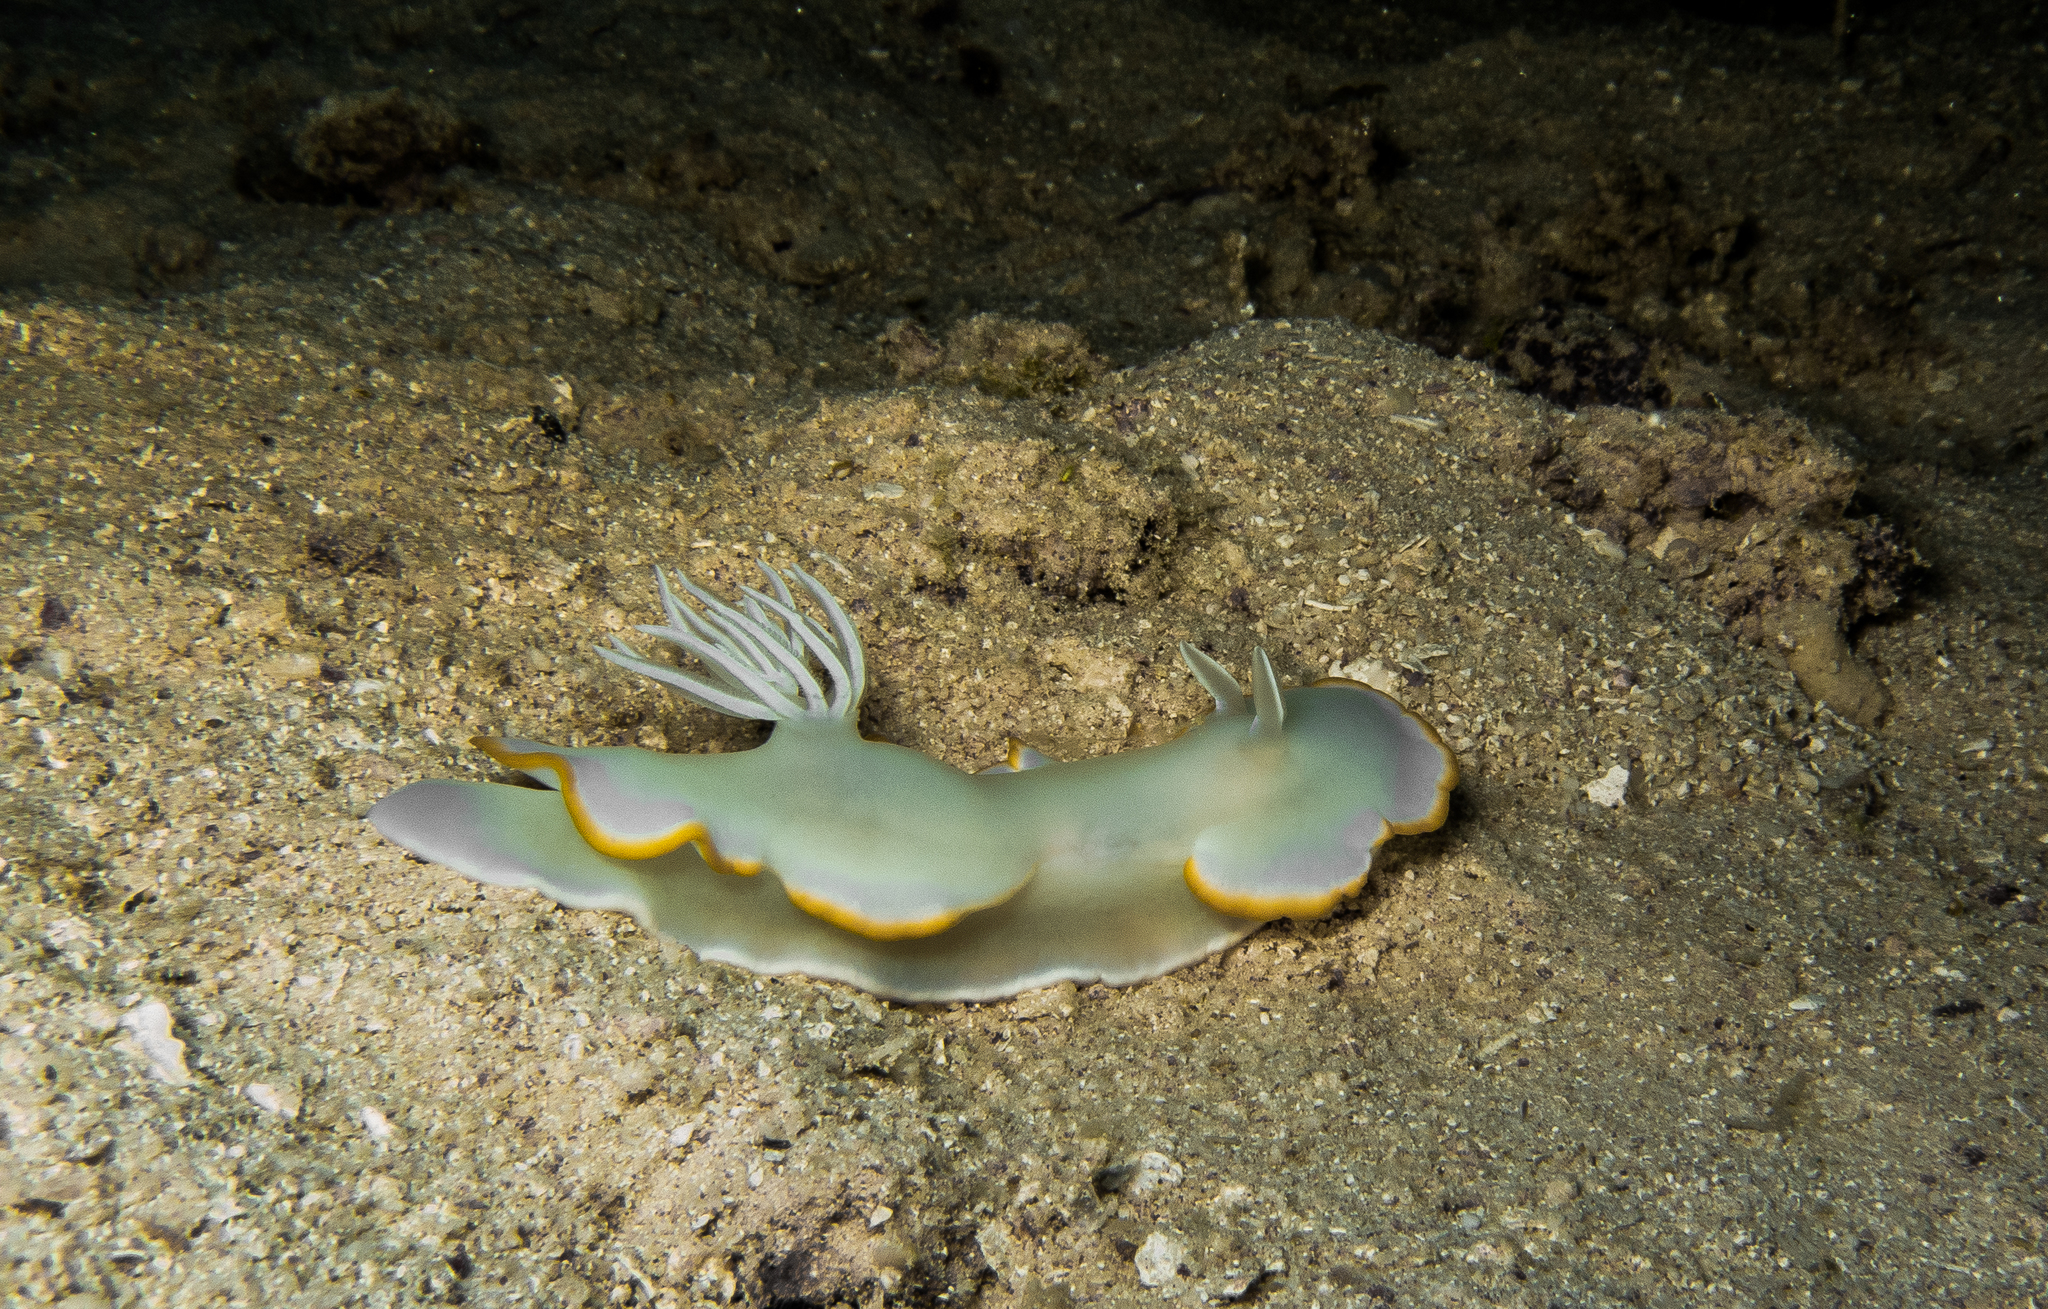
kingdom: Animalia
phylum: Mollusca
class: Gastropoda
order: Nudibranchia
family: Chromodorididae
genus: Ardeadoris
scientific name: Ardeadoris egretta
